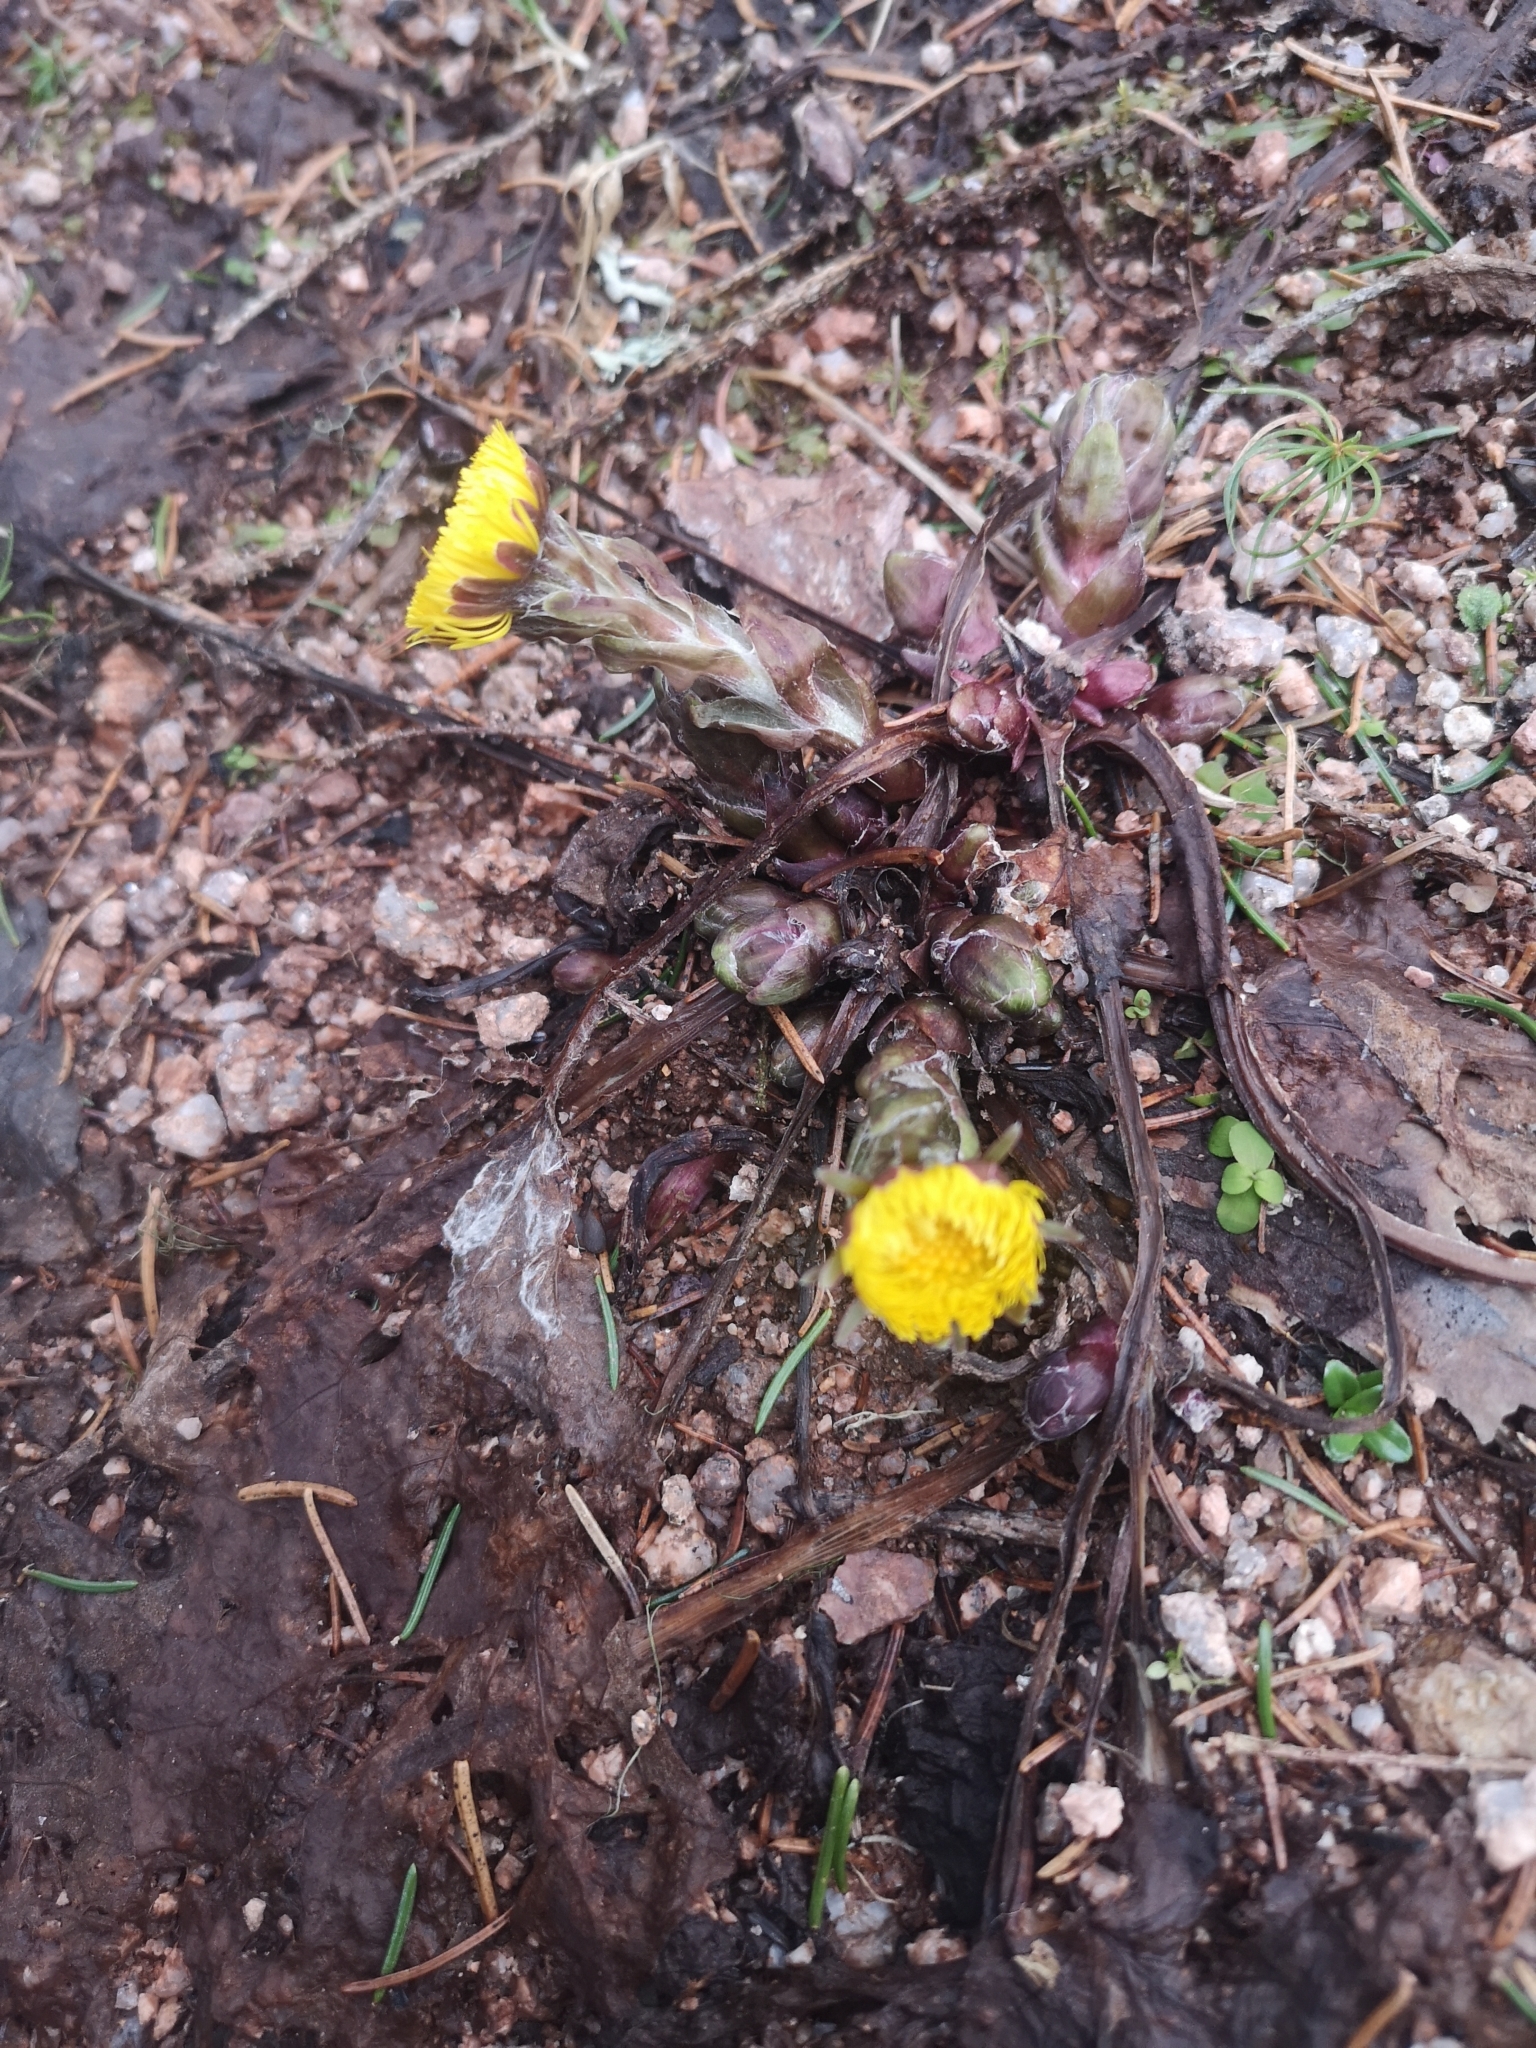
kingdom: Plantae
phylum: Tracheophyta
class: Magnoliopsida
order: Asterales
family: Asteraceae
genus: Tussilago
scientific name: Tussilago farfara
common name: Coltsfoot
